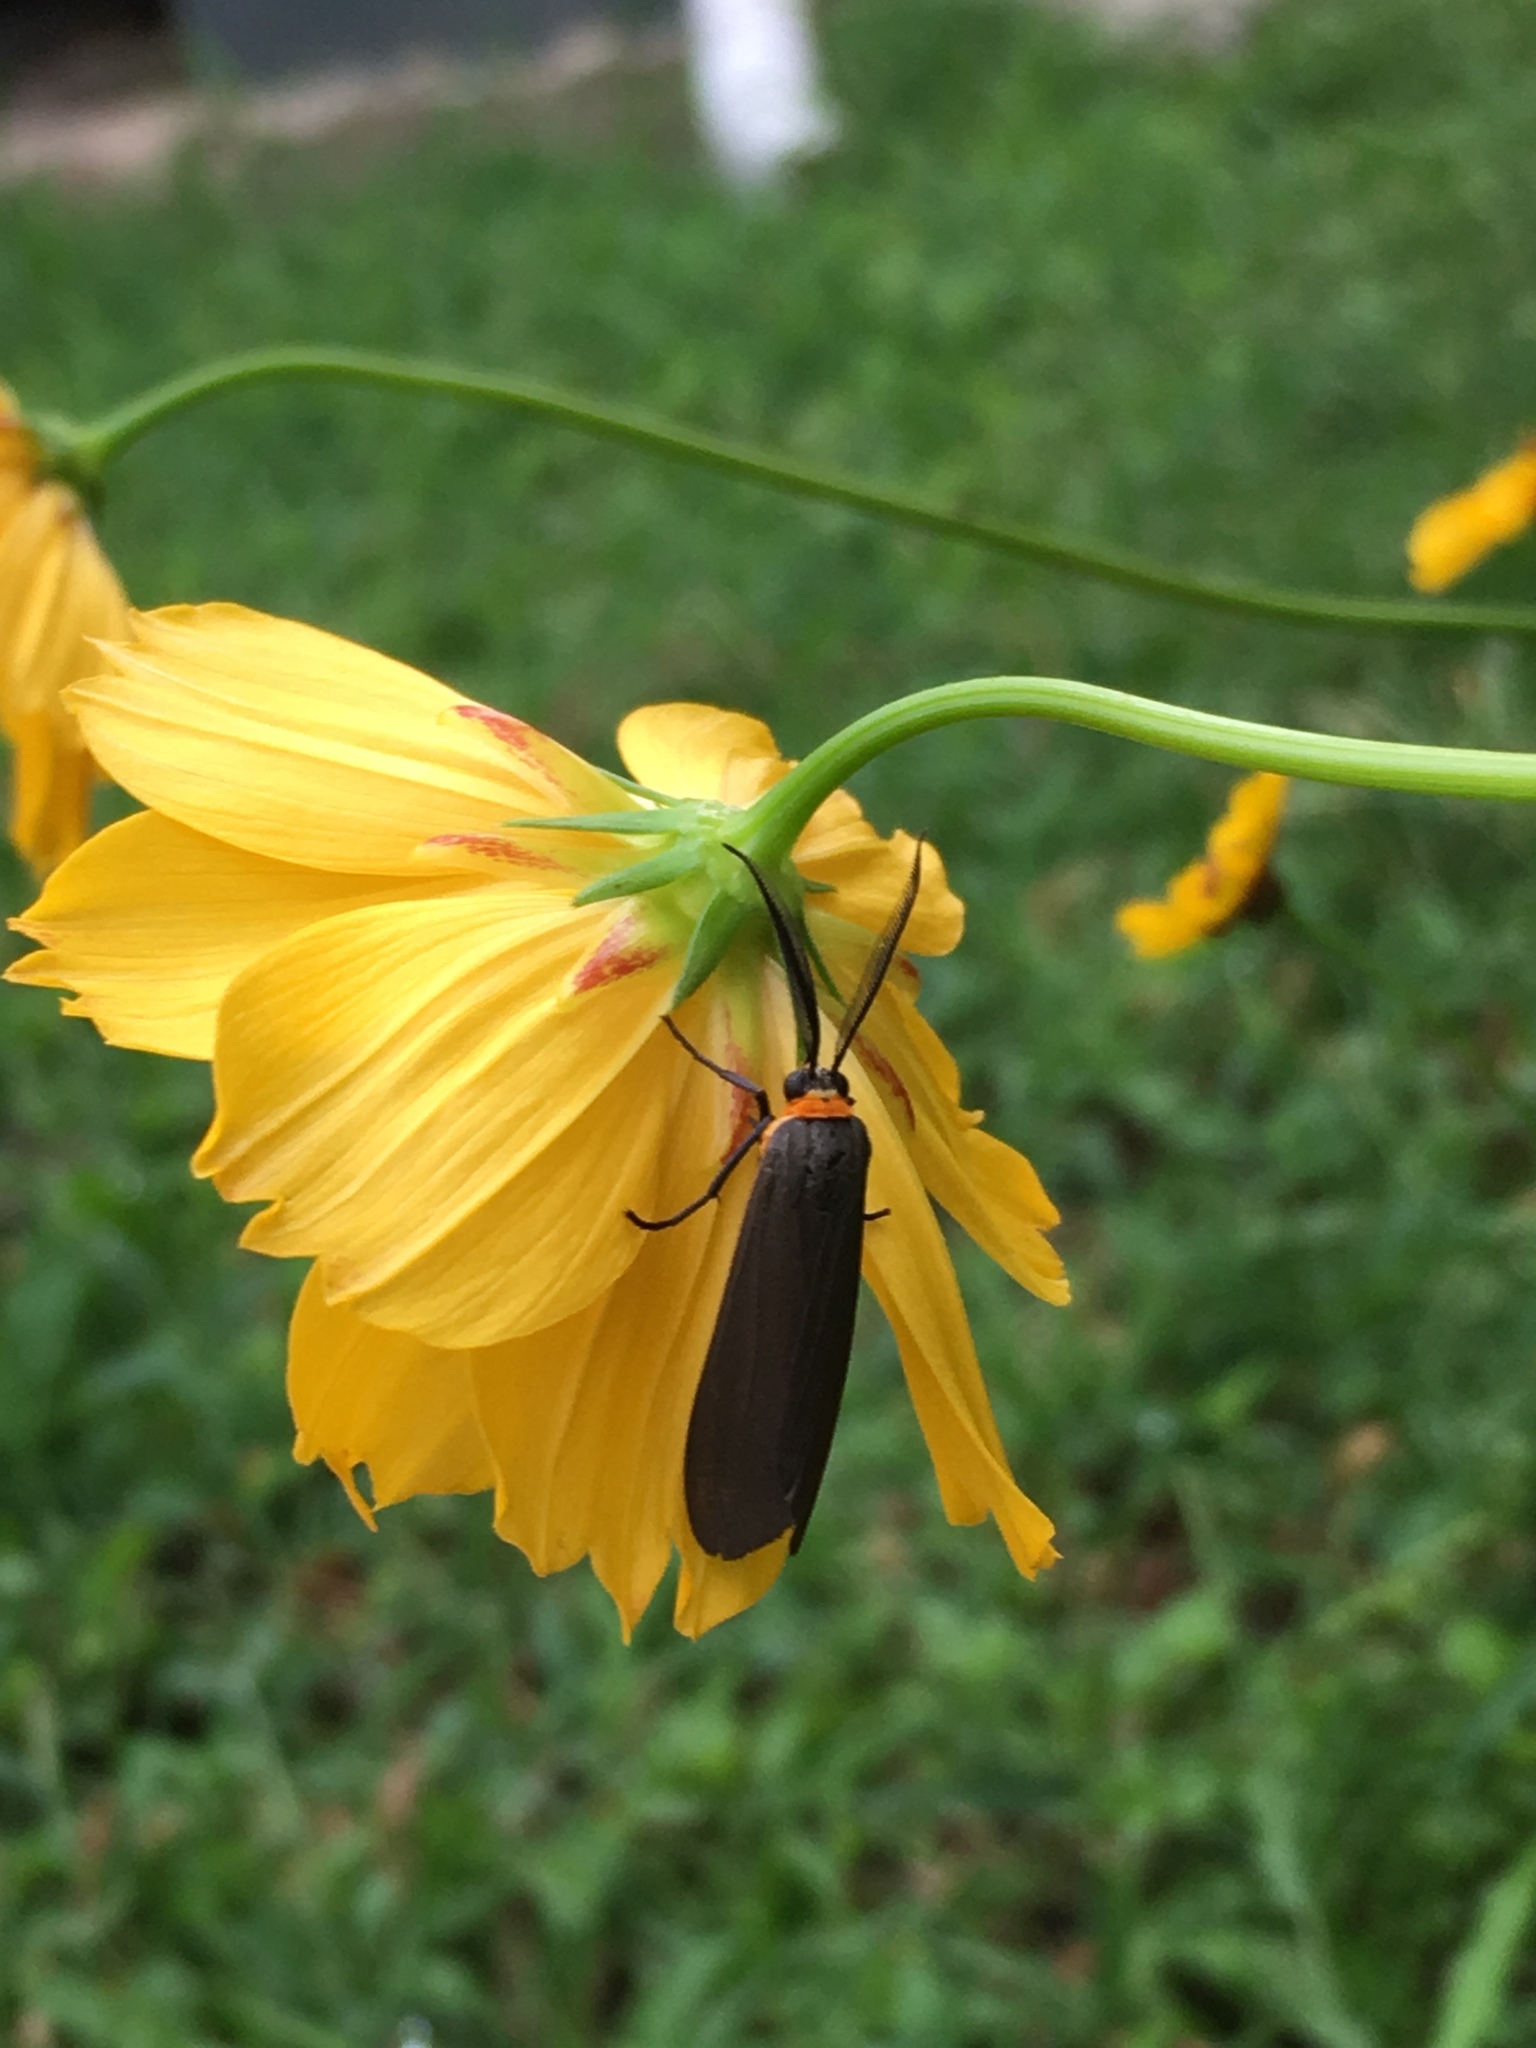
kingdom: Animalia
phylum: Arthropoda
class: Insecta
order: Lepidoptera
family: Erebidae
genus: Cisseps
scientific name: Cisseps fulvicollis
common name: Yellow-collared scape moth
